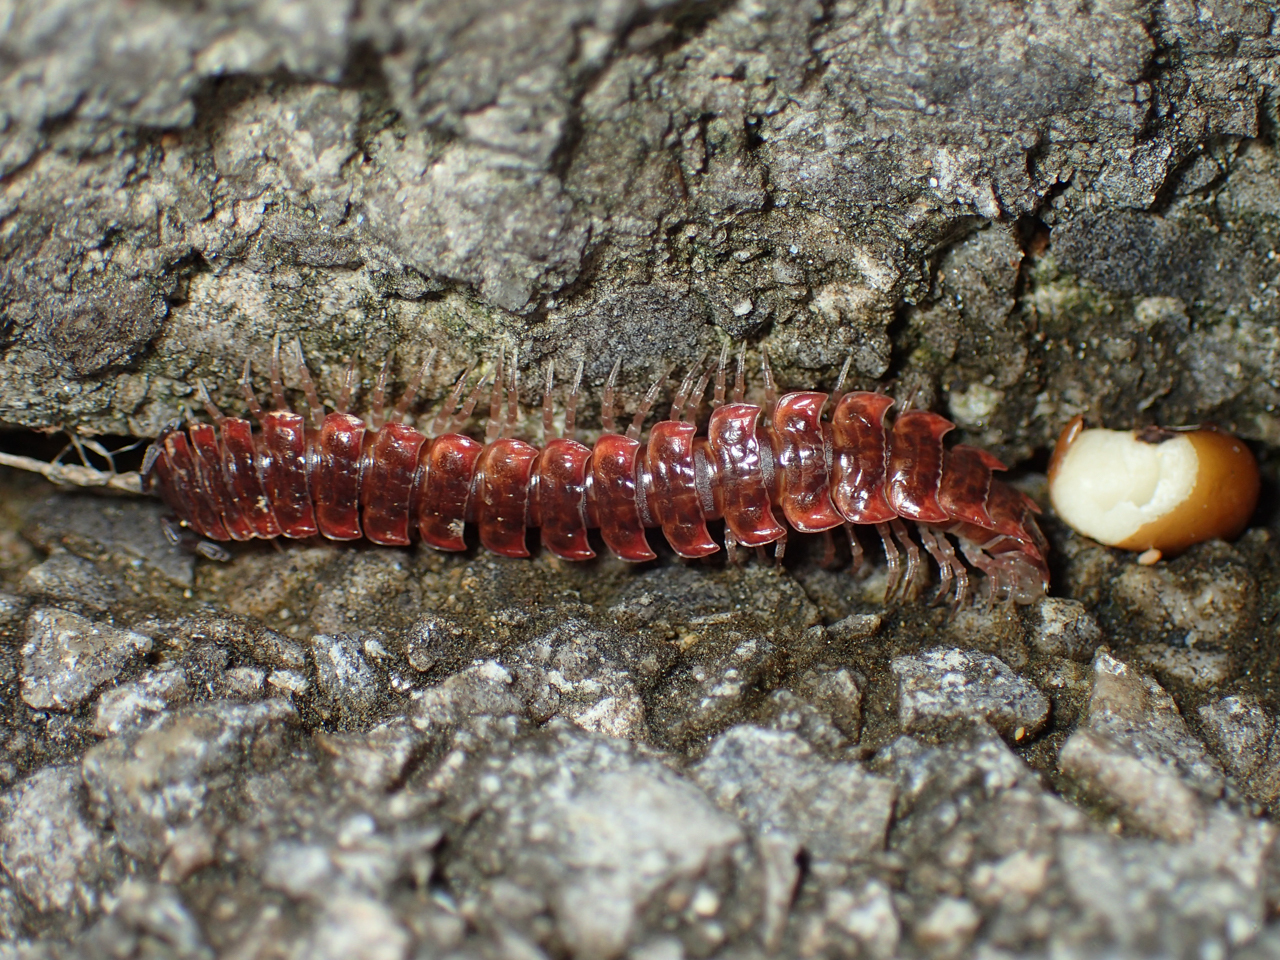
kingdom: Animalia
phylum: Arthropoda
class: Diplopoda
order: Polydesmida
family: Polydesmidae
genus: Pseudopolydesmus
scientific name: Pseudopolydesmus erasus
